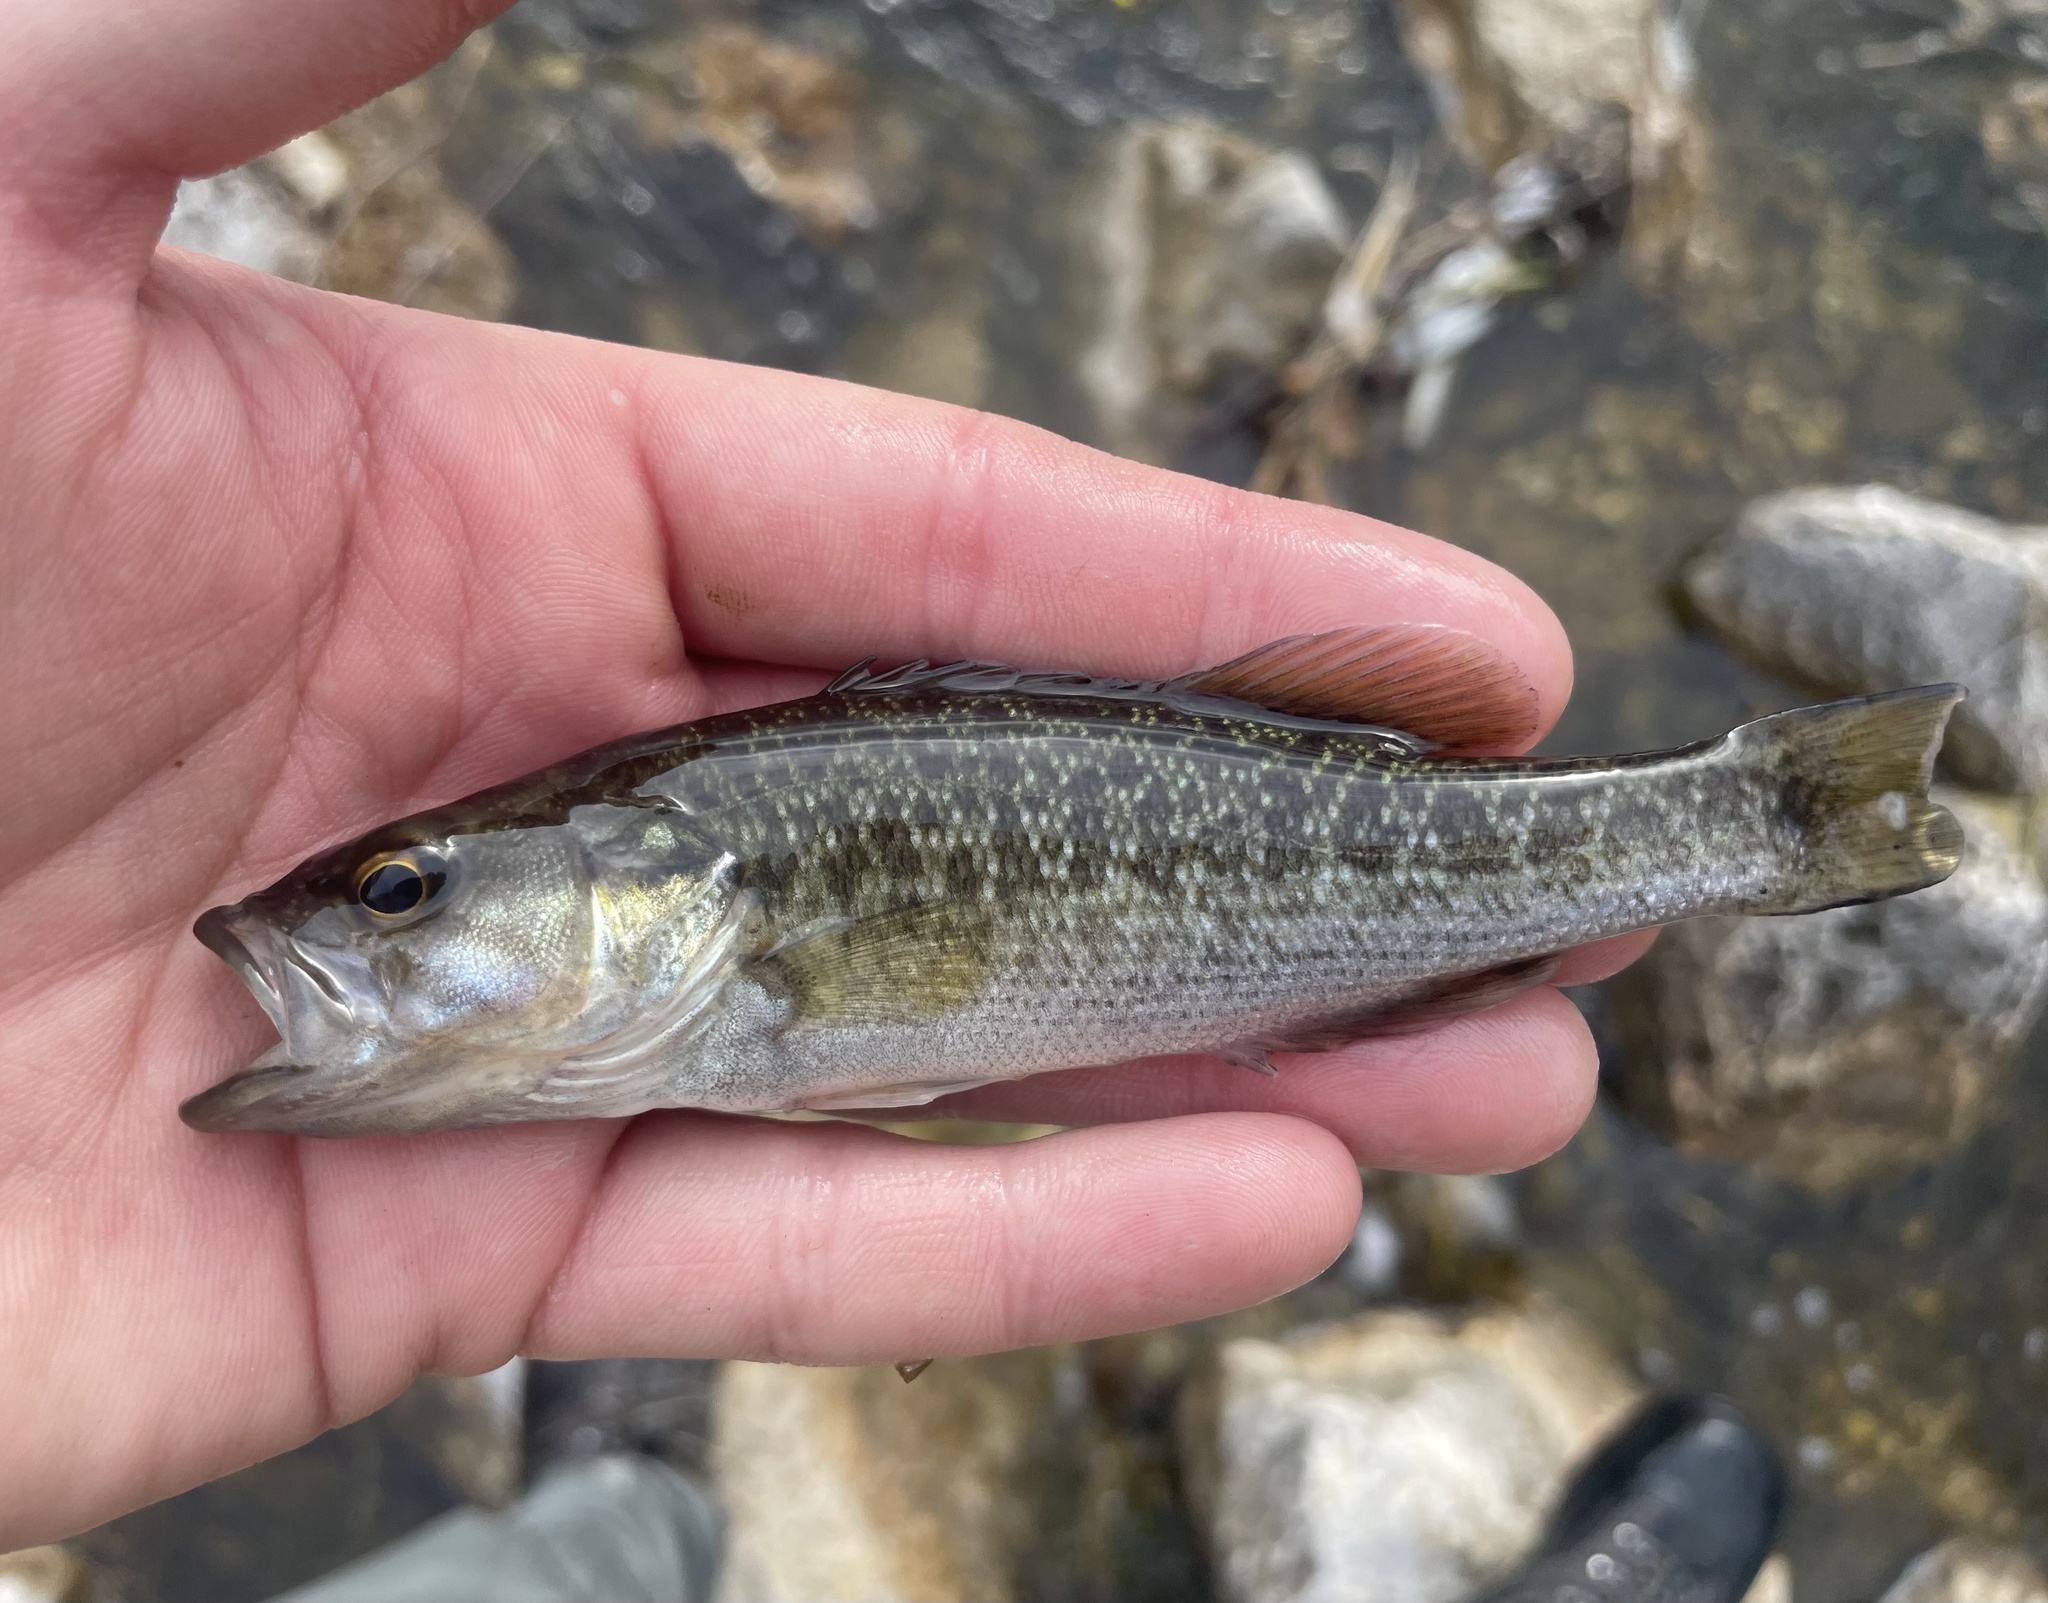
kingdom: Animalia
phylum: Chordata
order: Perciformes
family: Centrarchidae
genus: Micropterus
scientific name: Micropterus treculii
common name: Guadalupe bass
